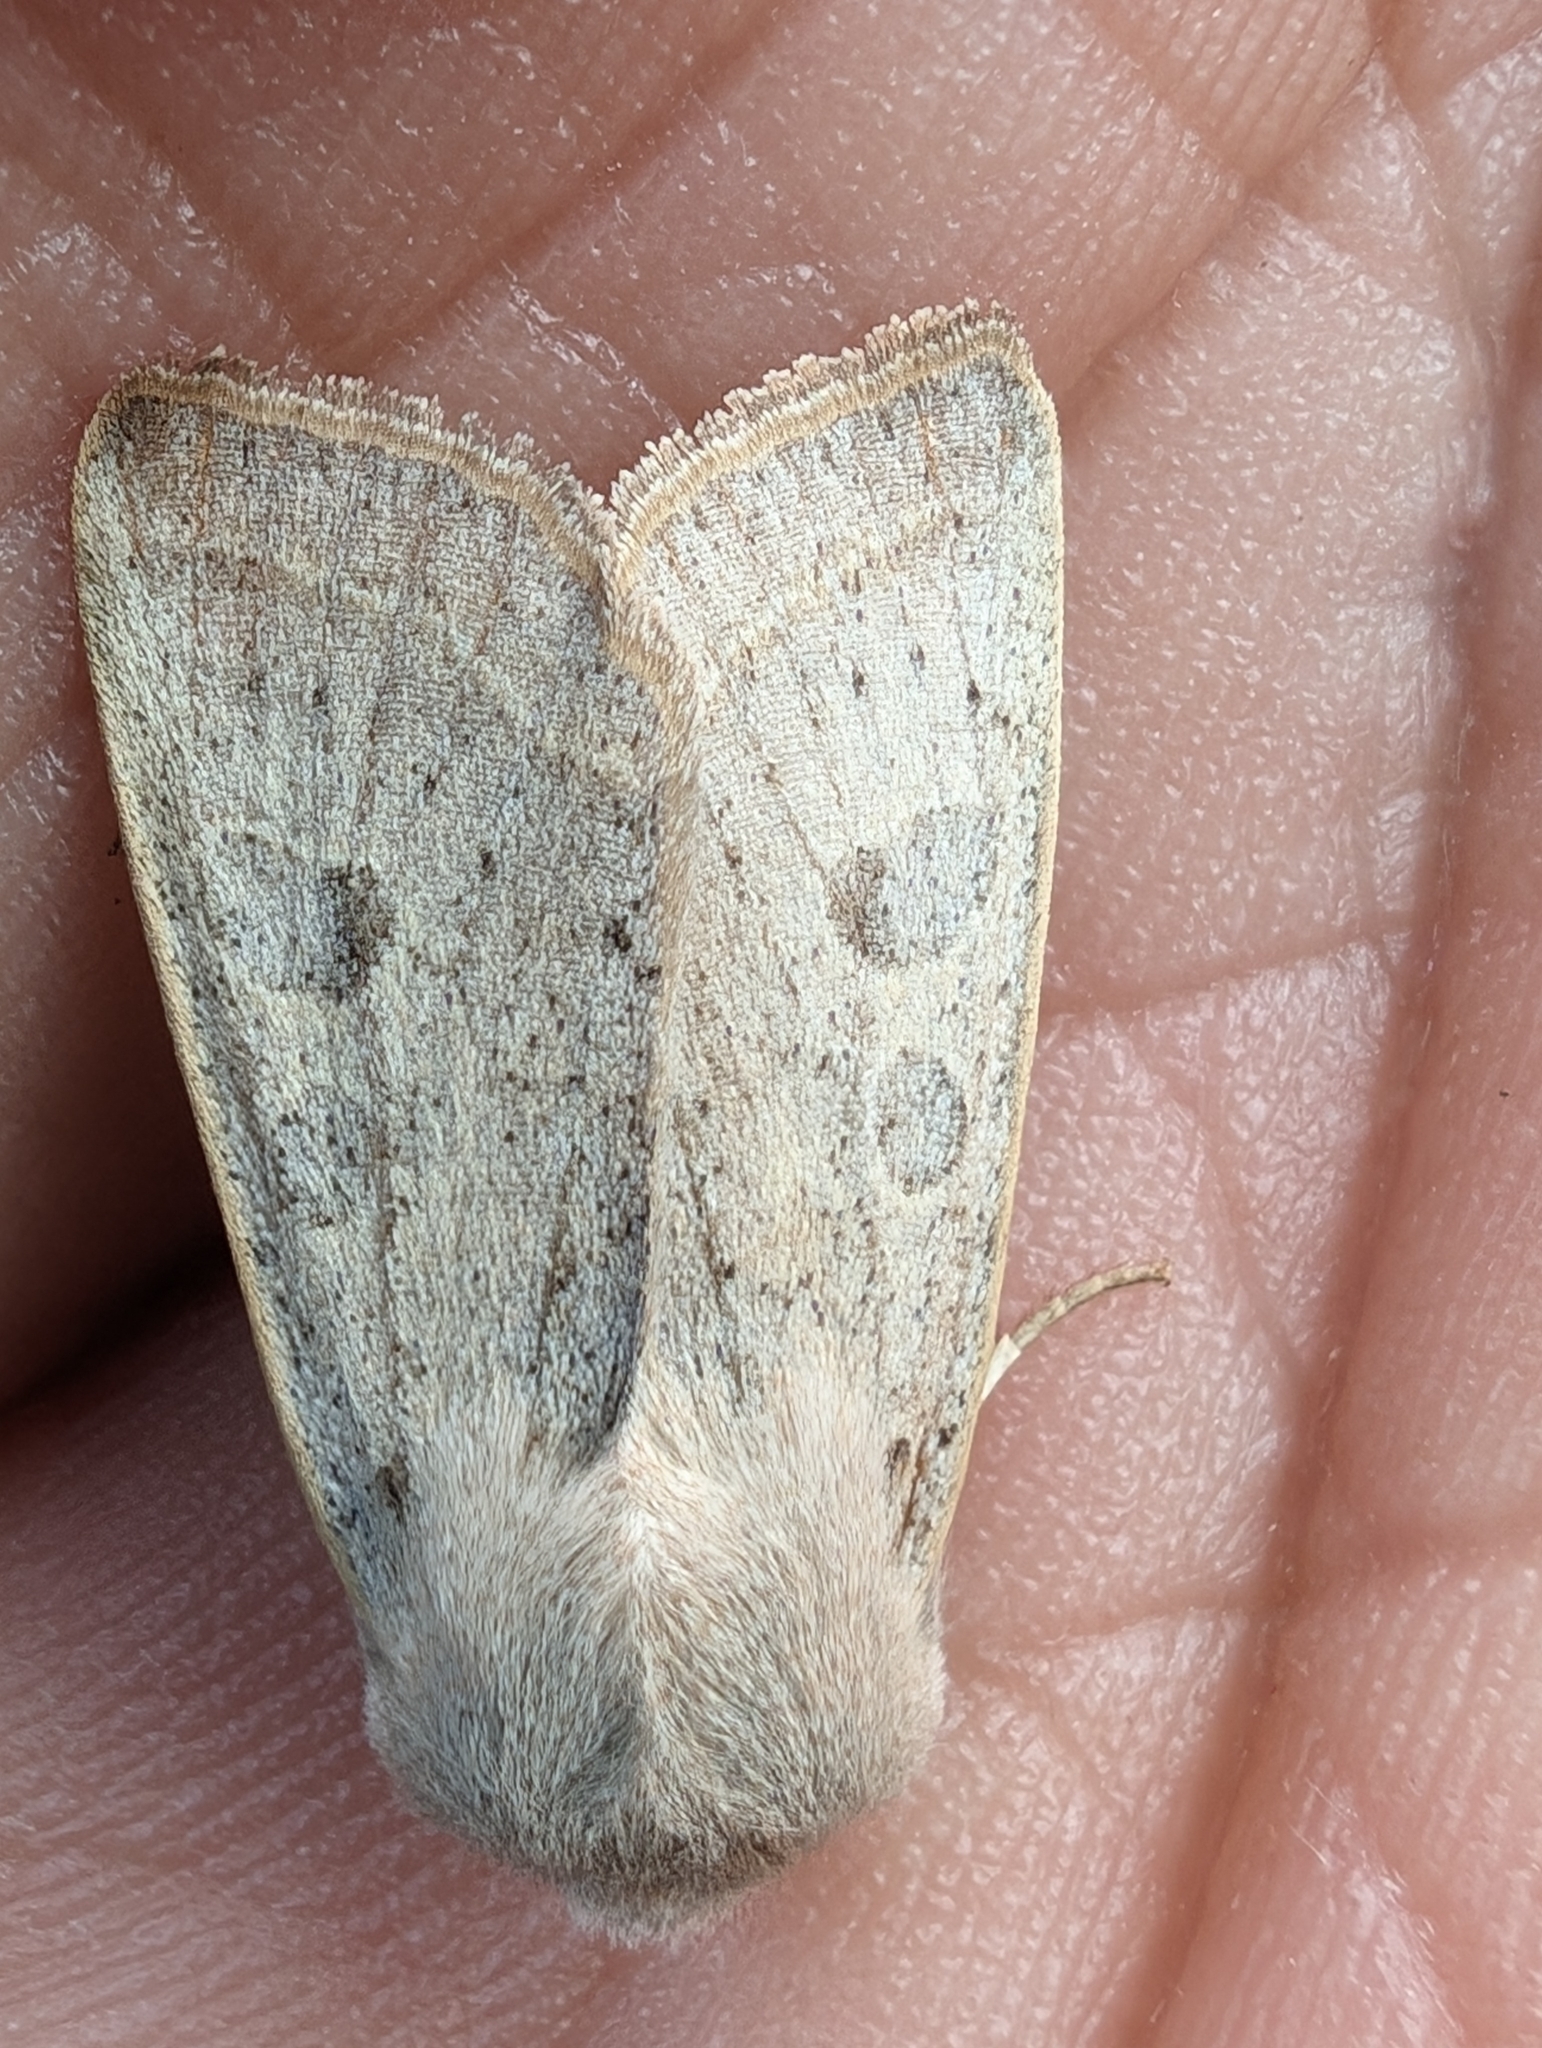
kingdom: Animalia
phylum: Arthropoda
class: Insecta
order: Lepidoptera
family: Noctuidae
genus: Orthosia
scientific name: Orthosia gracilis
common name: Powdered quaker
